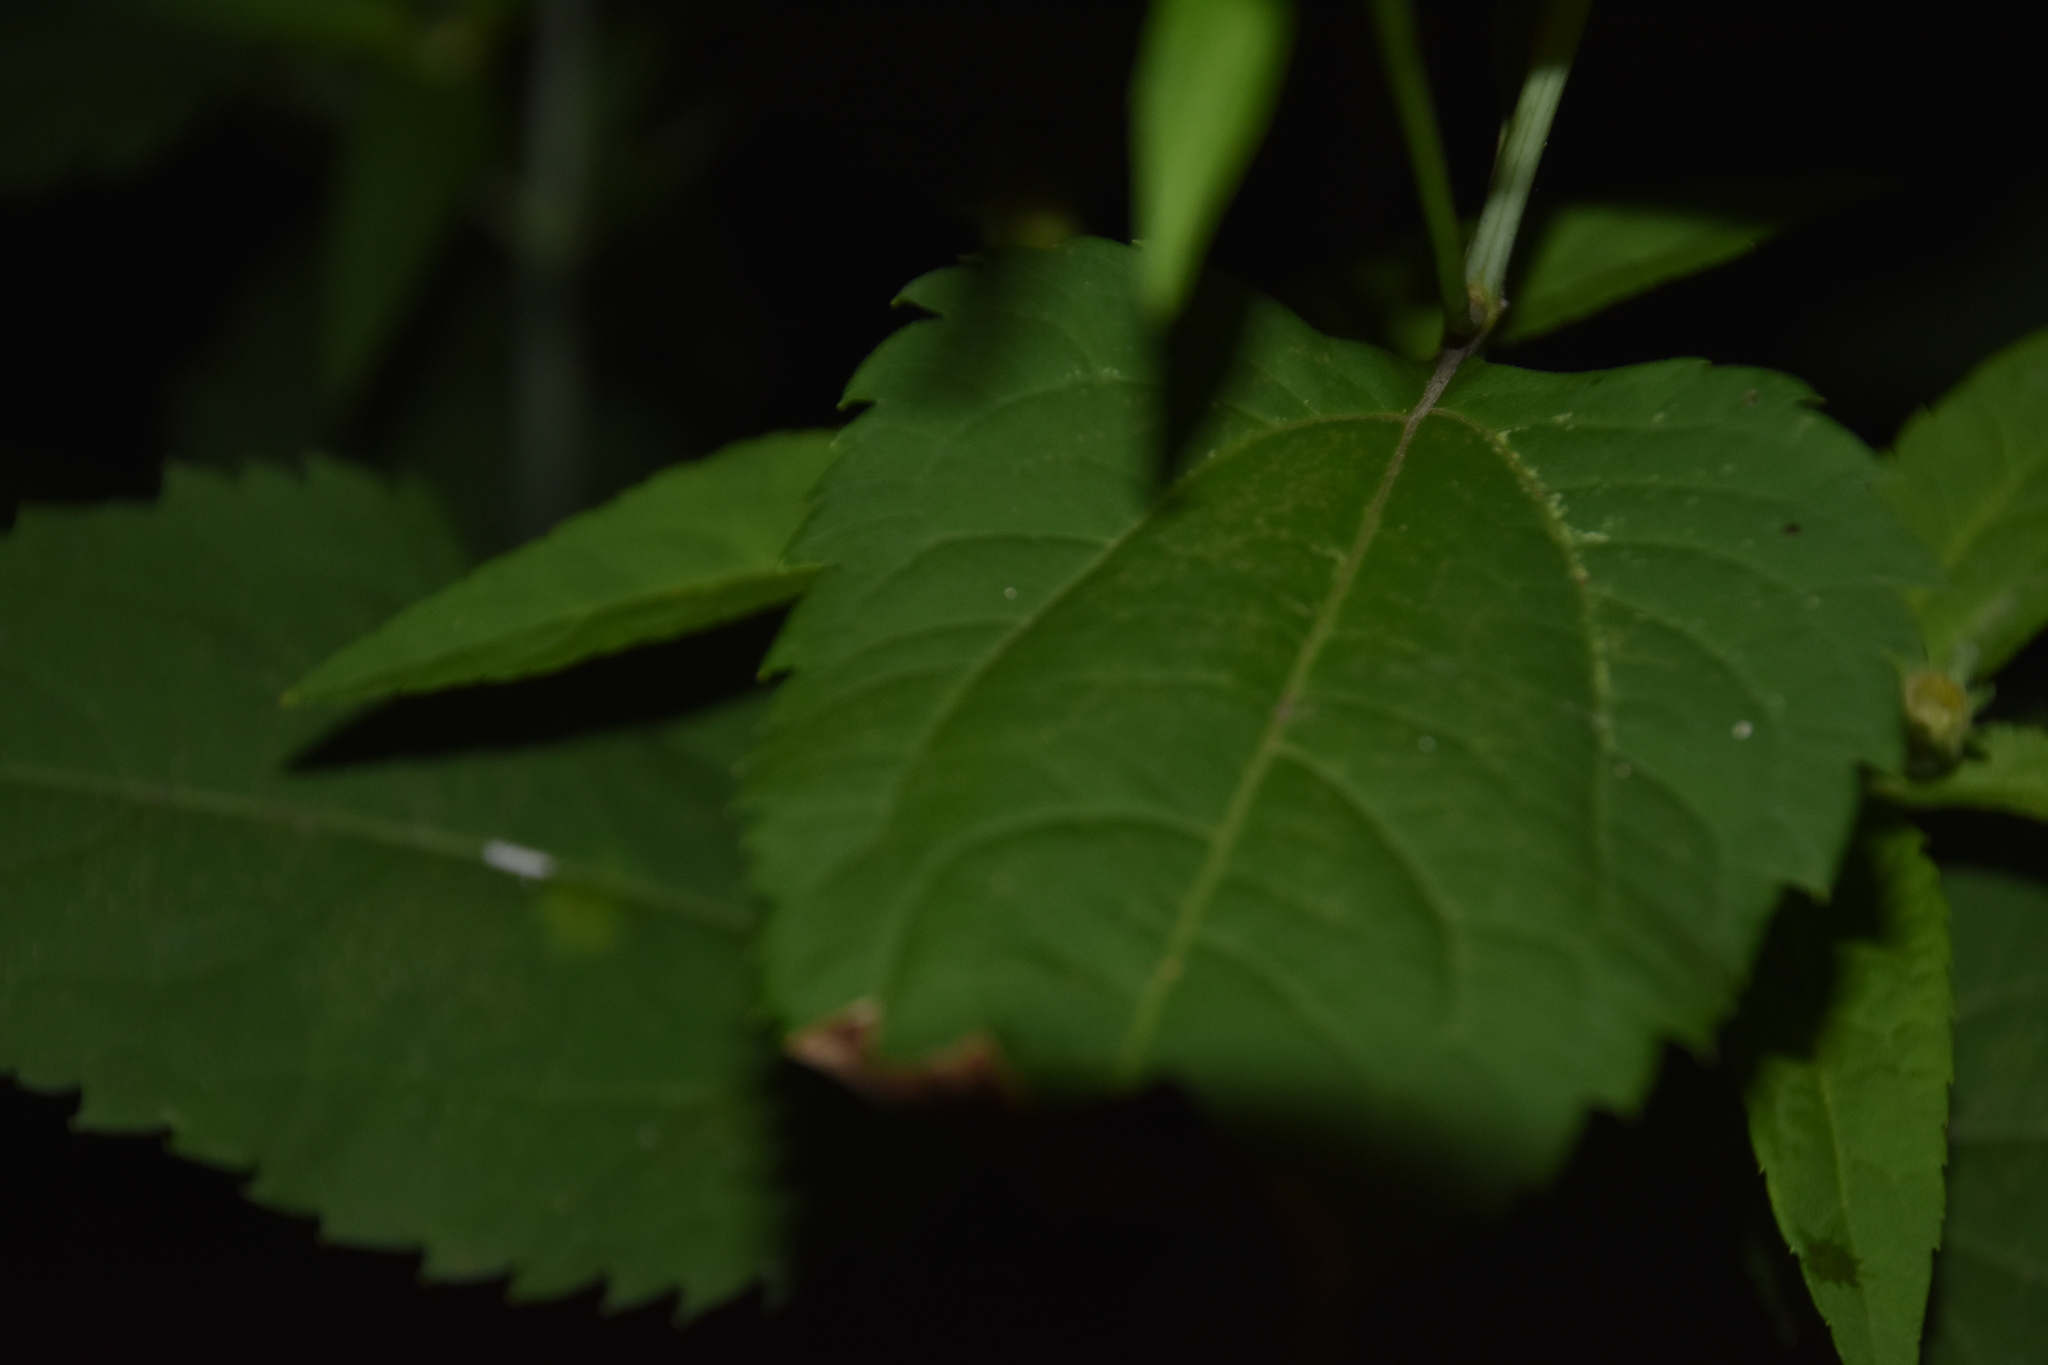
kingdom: Plantae
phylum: Tracheophyta
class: Magnoliopsida
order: Asterales
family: Asteraceae
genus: Heliopsis
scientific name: Heliopsis helianthoides
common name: False sunflower
